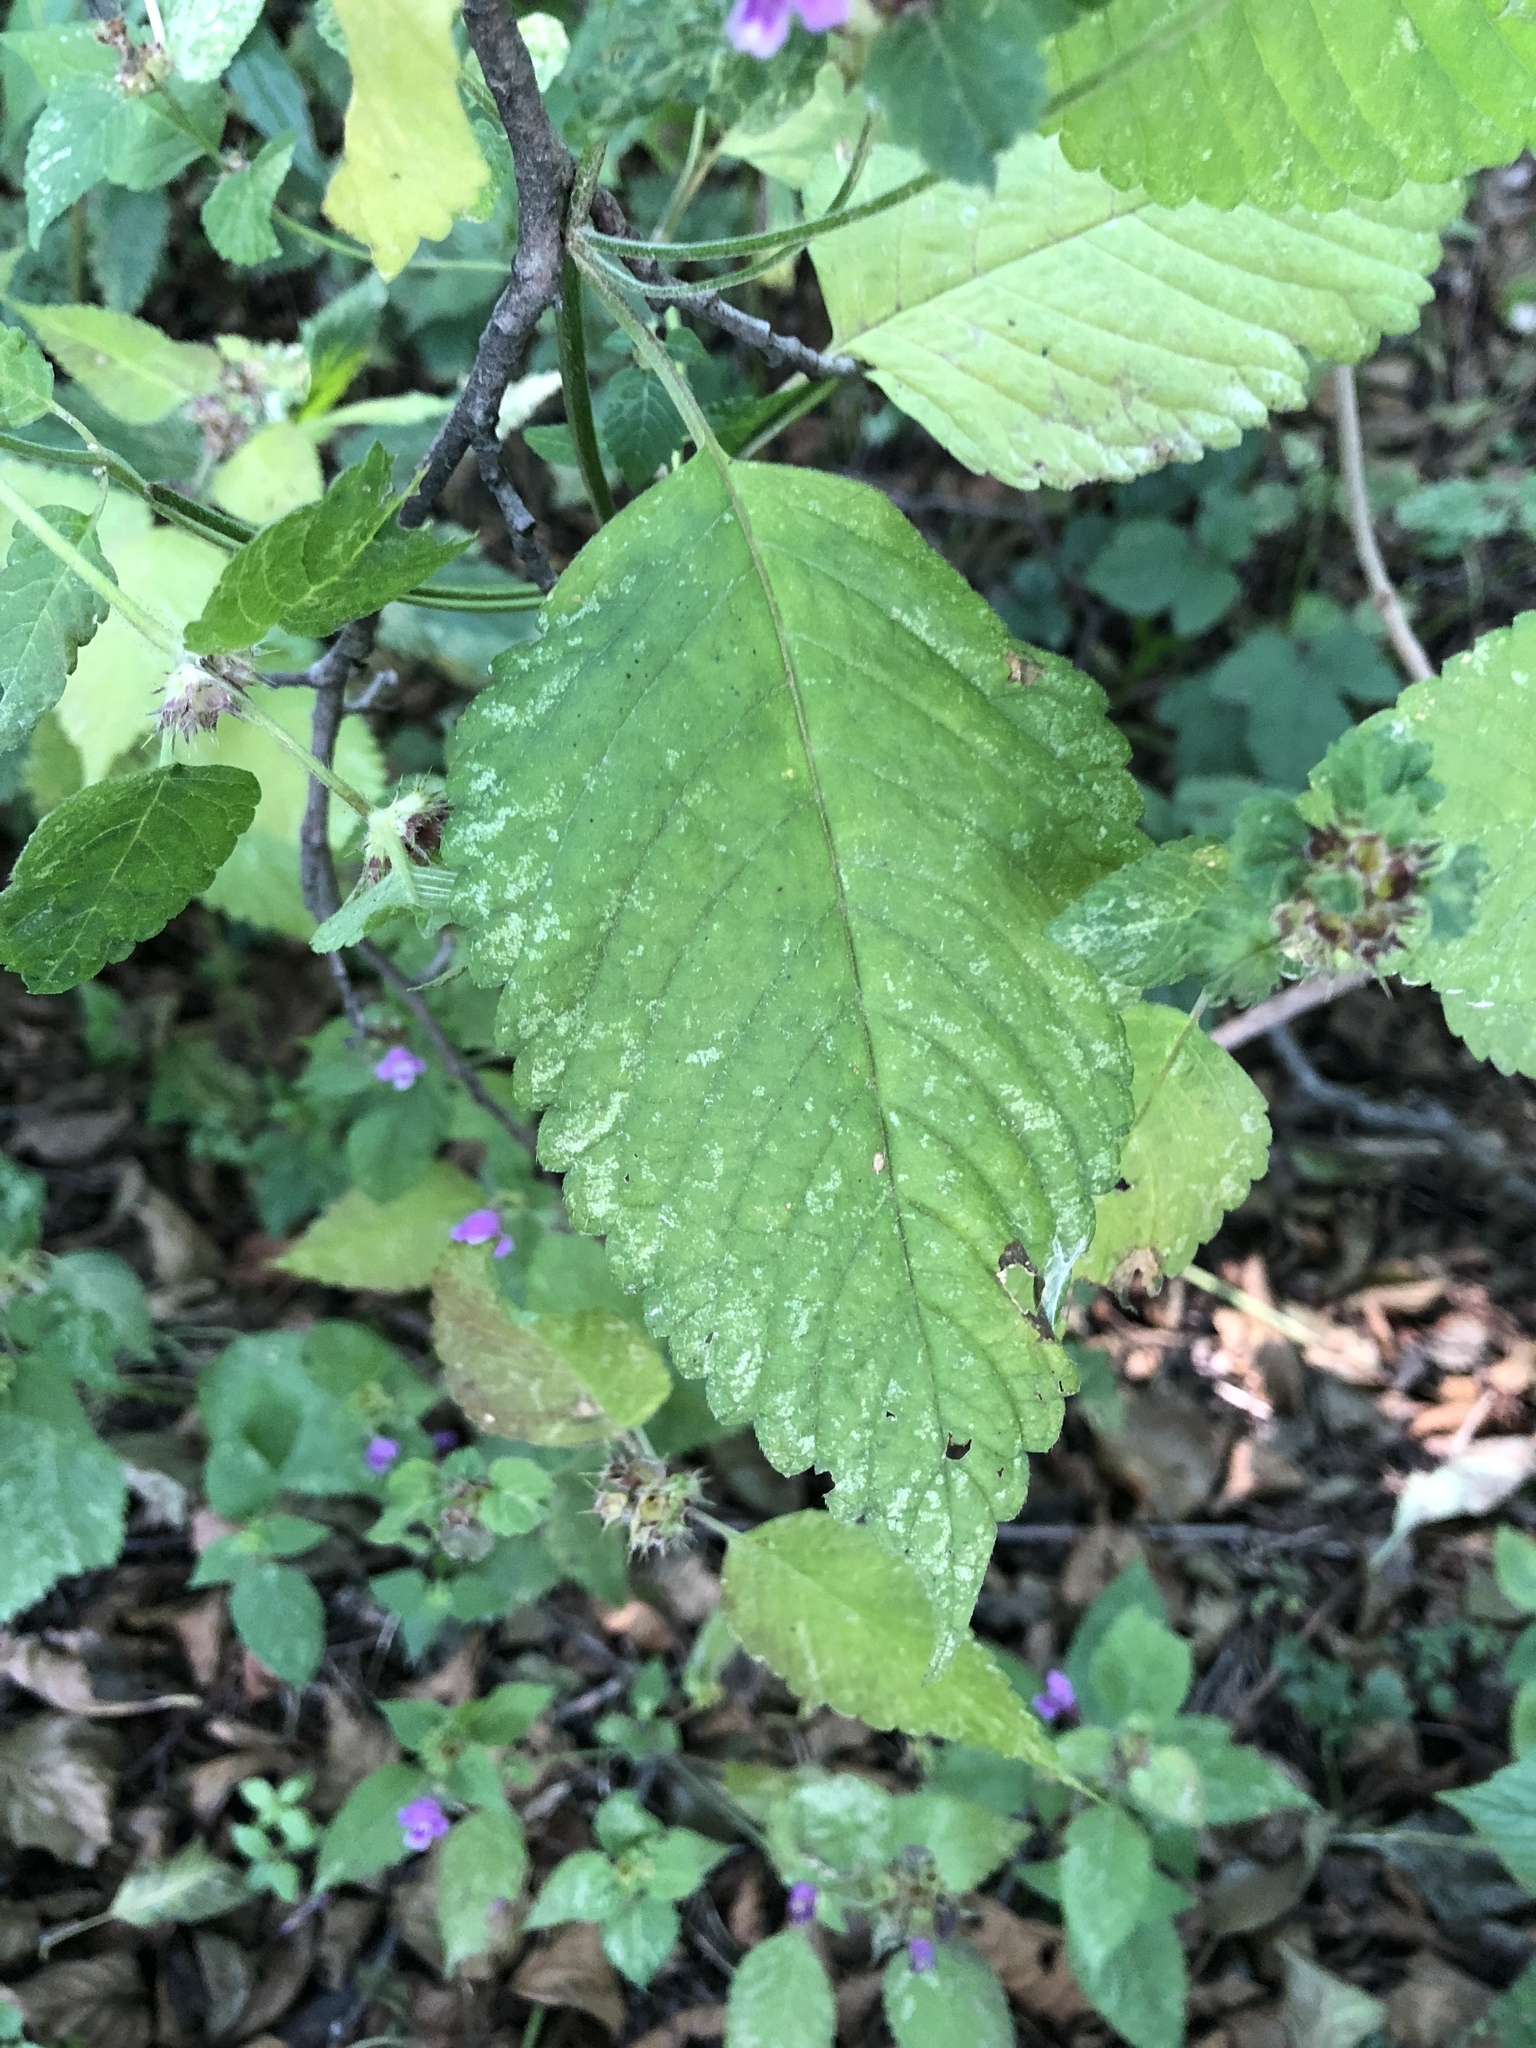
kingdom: Plantae
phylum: Tracheophyta
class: Magnoliopsida
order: Lamiales
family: Lamiaceae
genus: Galeopsis
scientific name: Galeopsis pubescens
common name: Downy hemp-nettle
